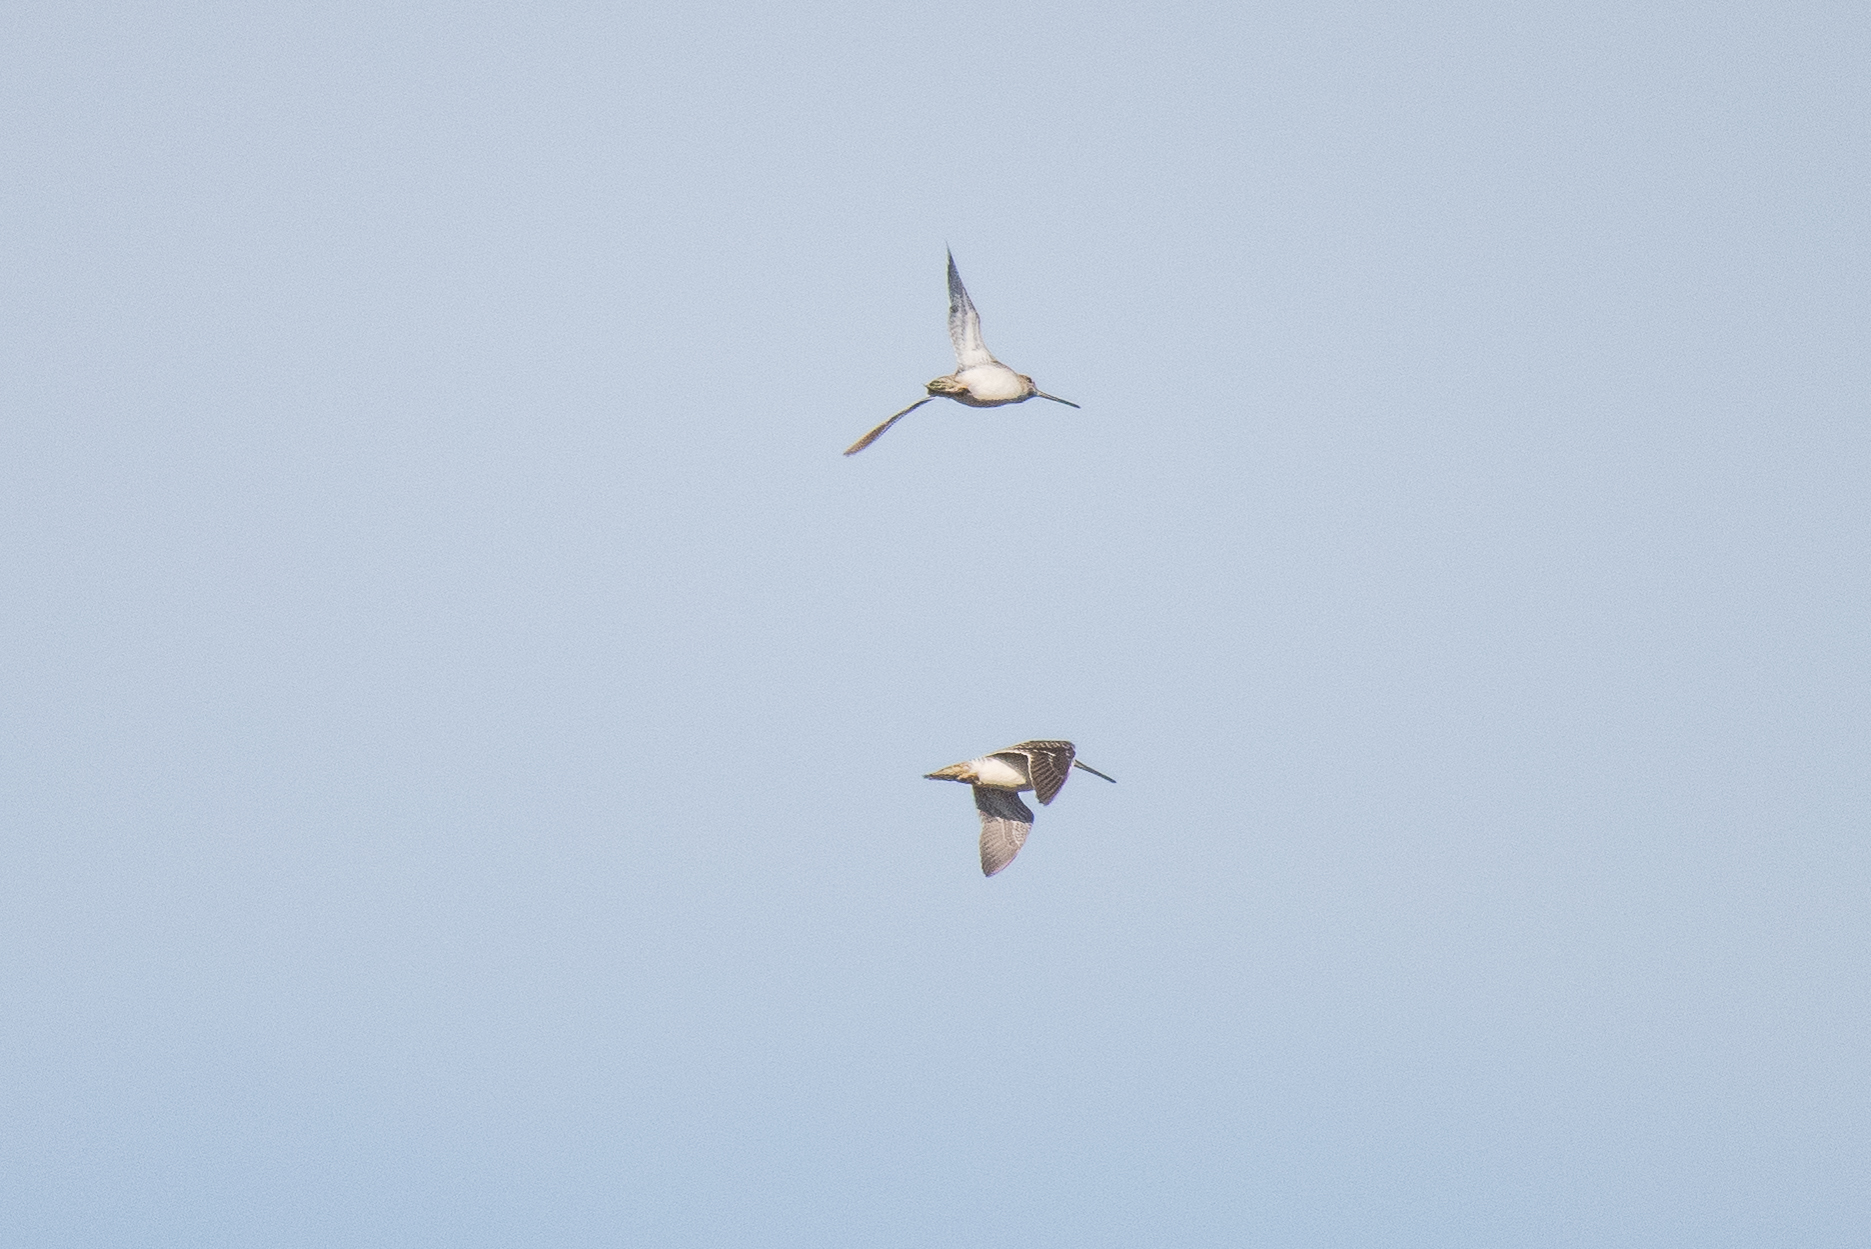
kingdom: Animalia
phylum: Chordata
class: Aves
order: Charadriiformes
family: Scolopacidae
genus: Gallinago
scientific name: Gallinago gallinago
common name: Common snipe
